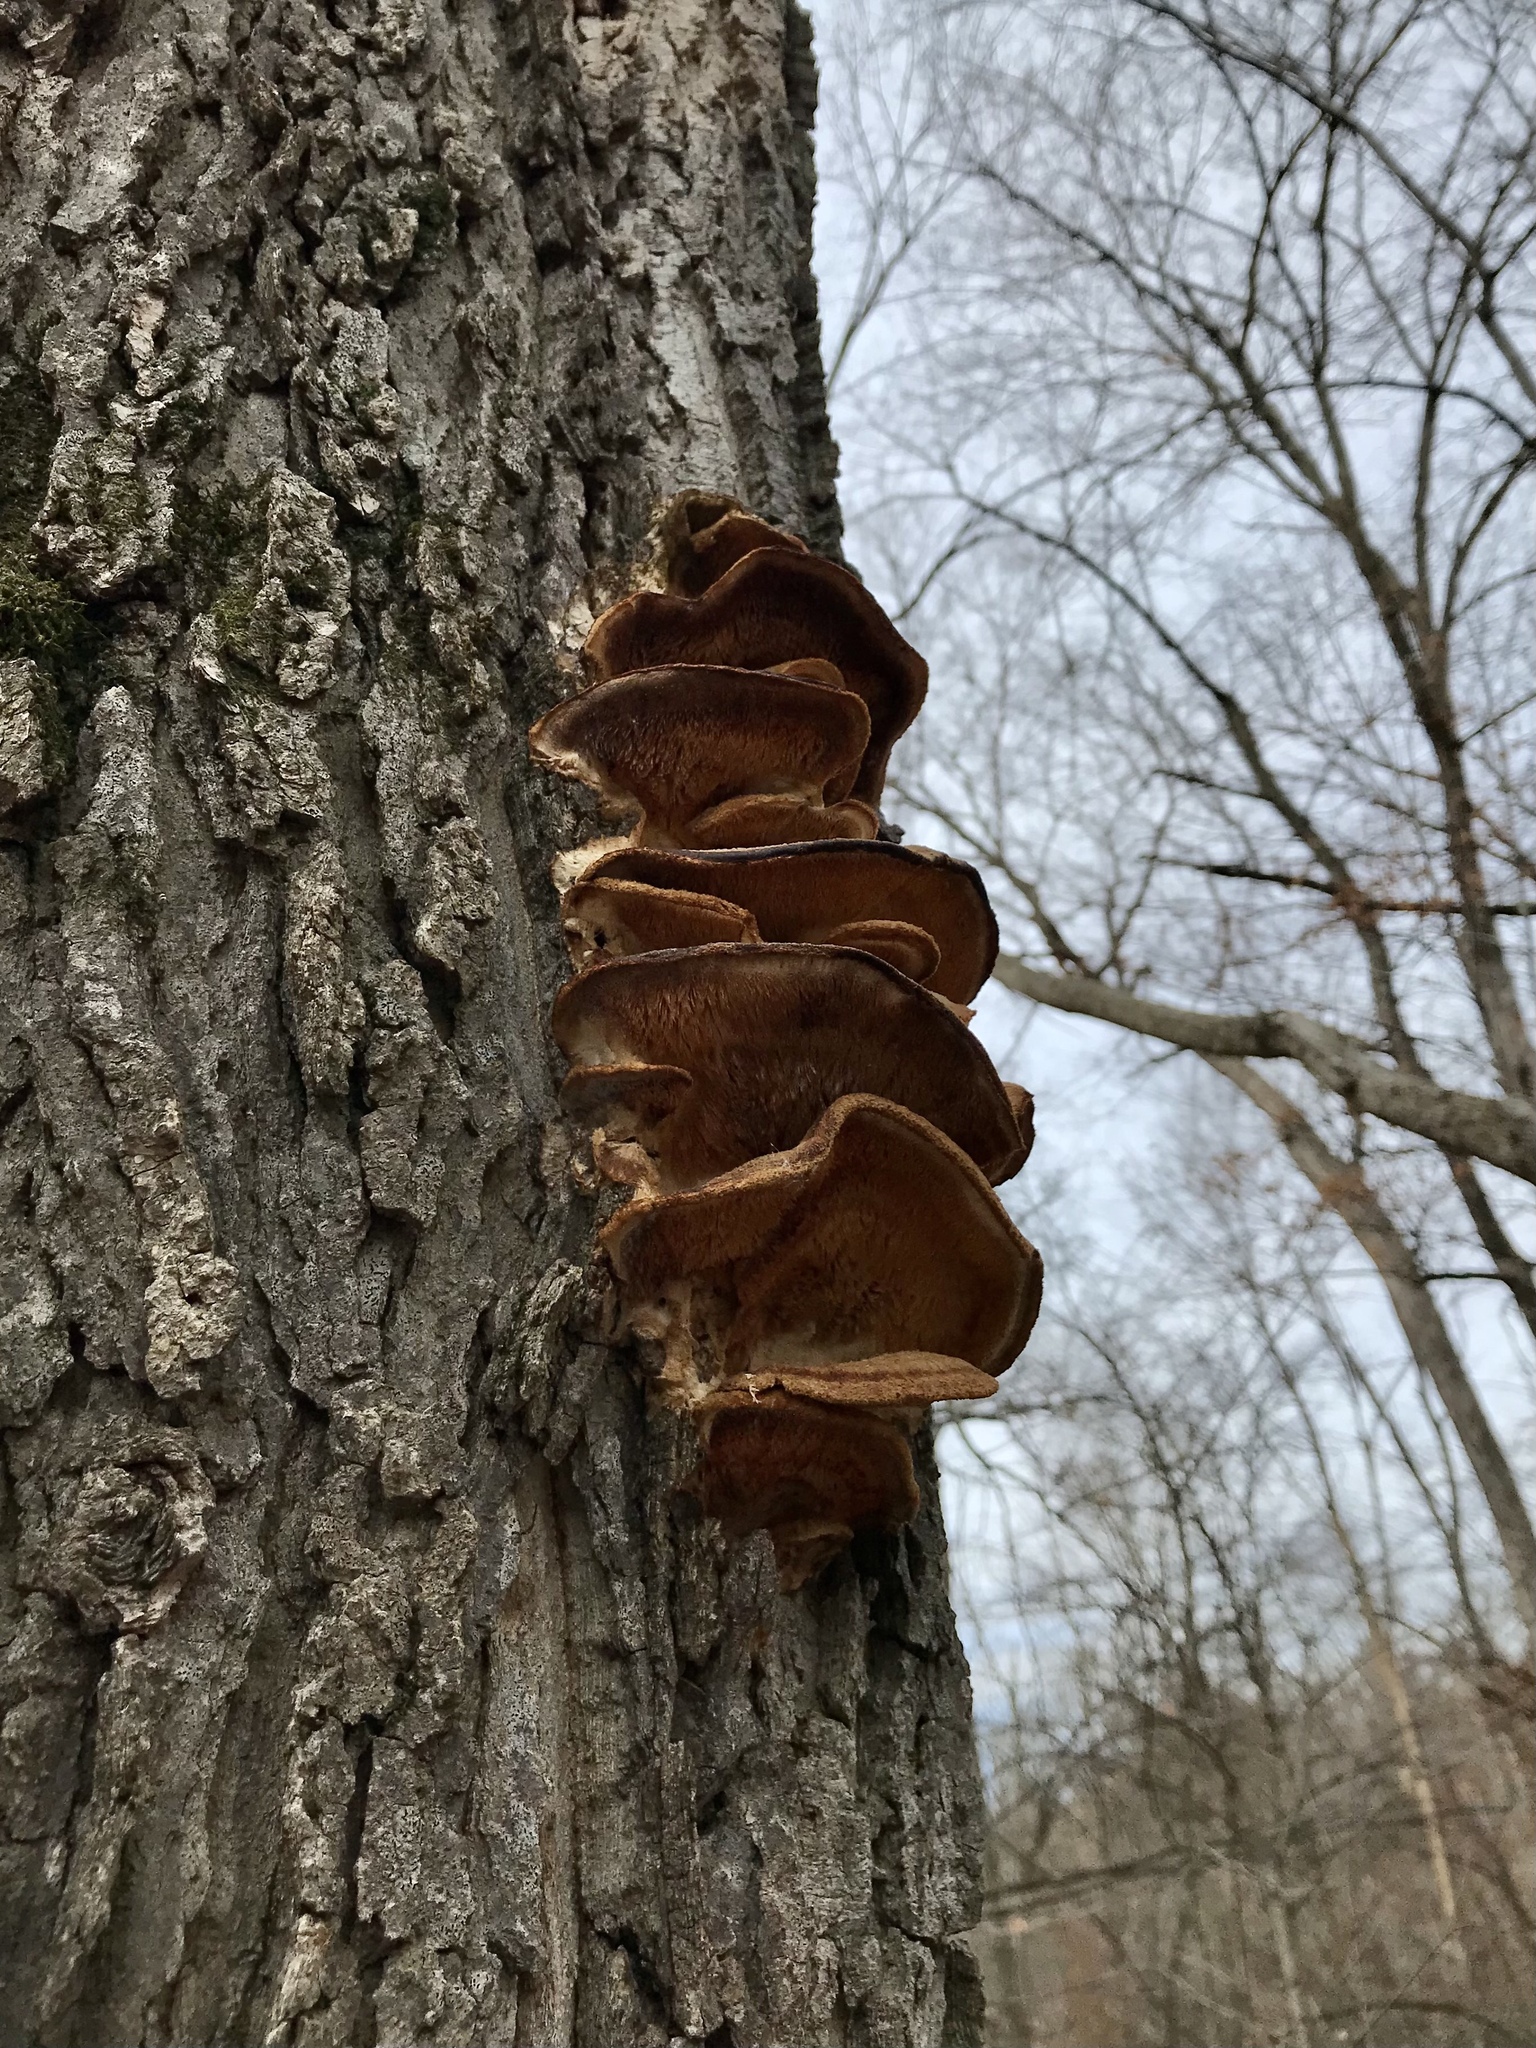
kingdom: Fungi
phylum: Basidiomycota
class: Agaricomycetes
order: Polyporales
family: Meruliaceae
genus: Climacodon
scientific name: Climacodon septentrionalis
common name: Northern tooth
